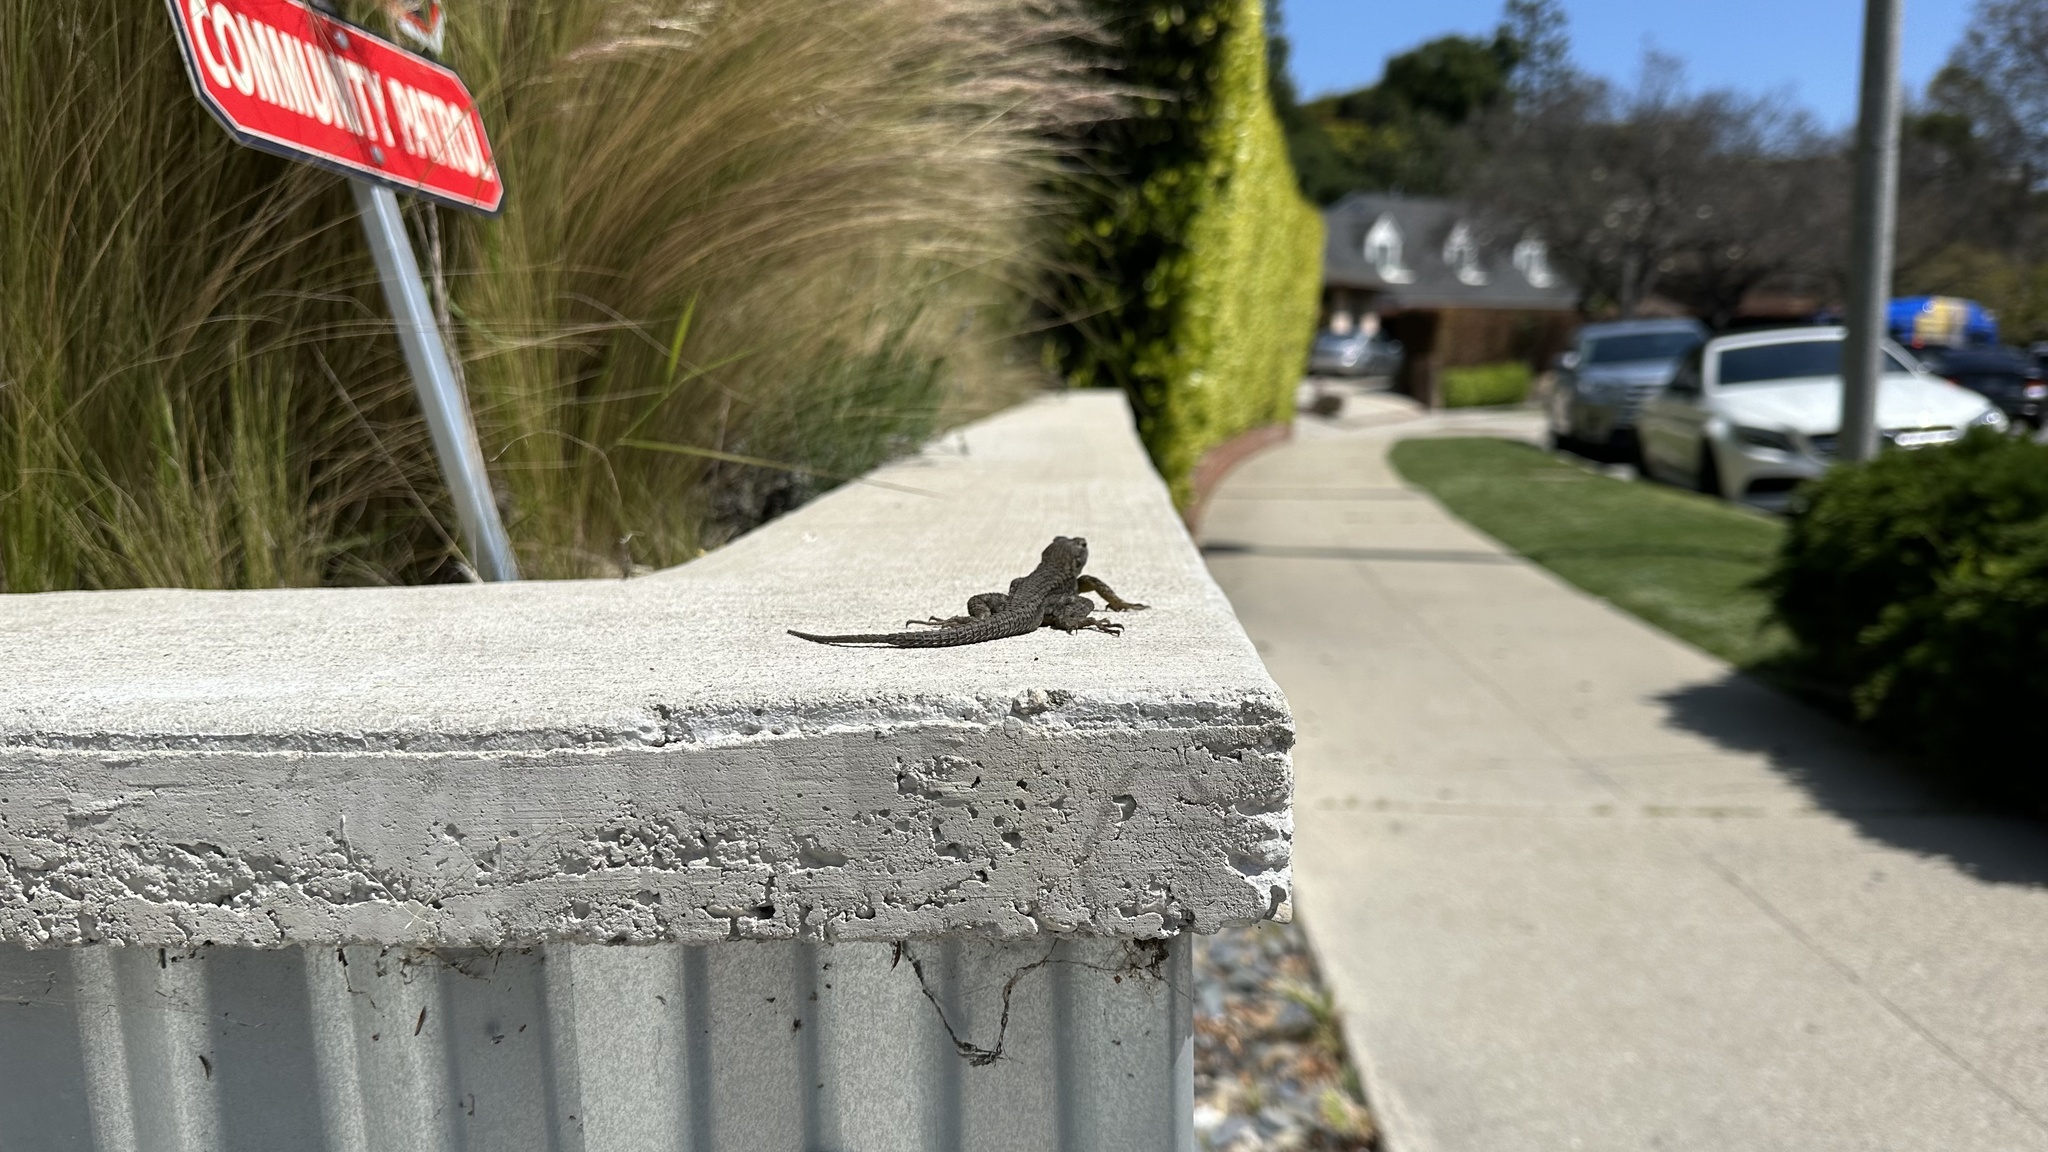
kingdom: Animalia
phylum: Chordata
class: Squamata
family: Phrynosomatidae
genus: Sceloporus
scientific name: Sceloporus occidentalis
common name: Western fence lizard
